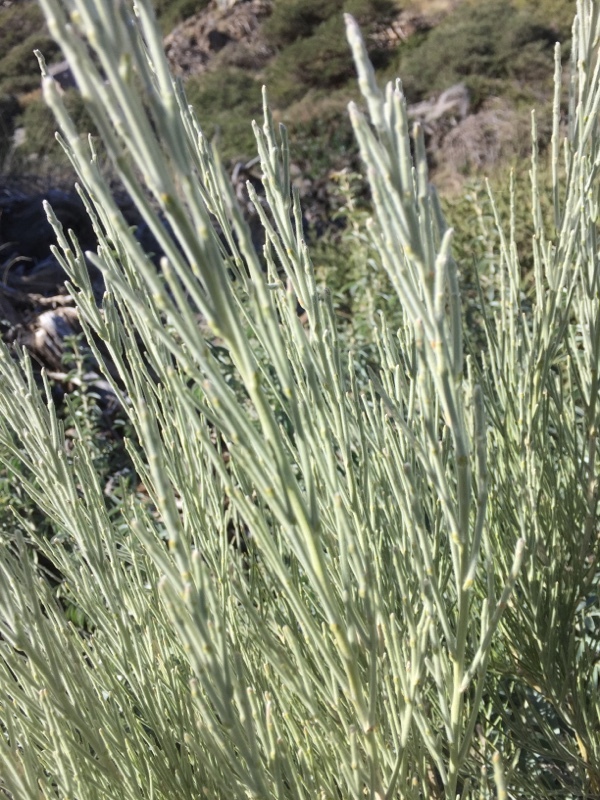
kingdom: Plantae
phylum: Tracheophyta
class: Magnoliopsida
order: Fabales
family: Fabaceae
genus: Cytisus
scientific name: Cytisus supranubius
